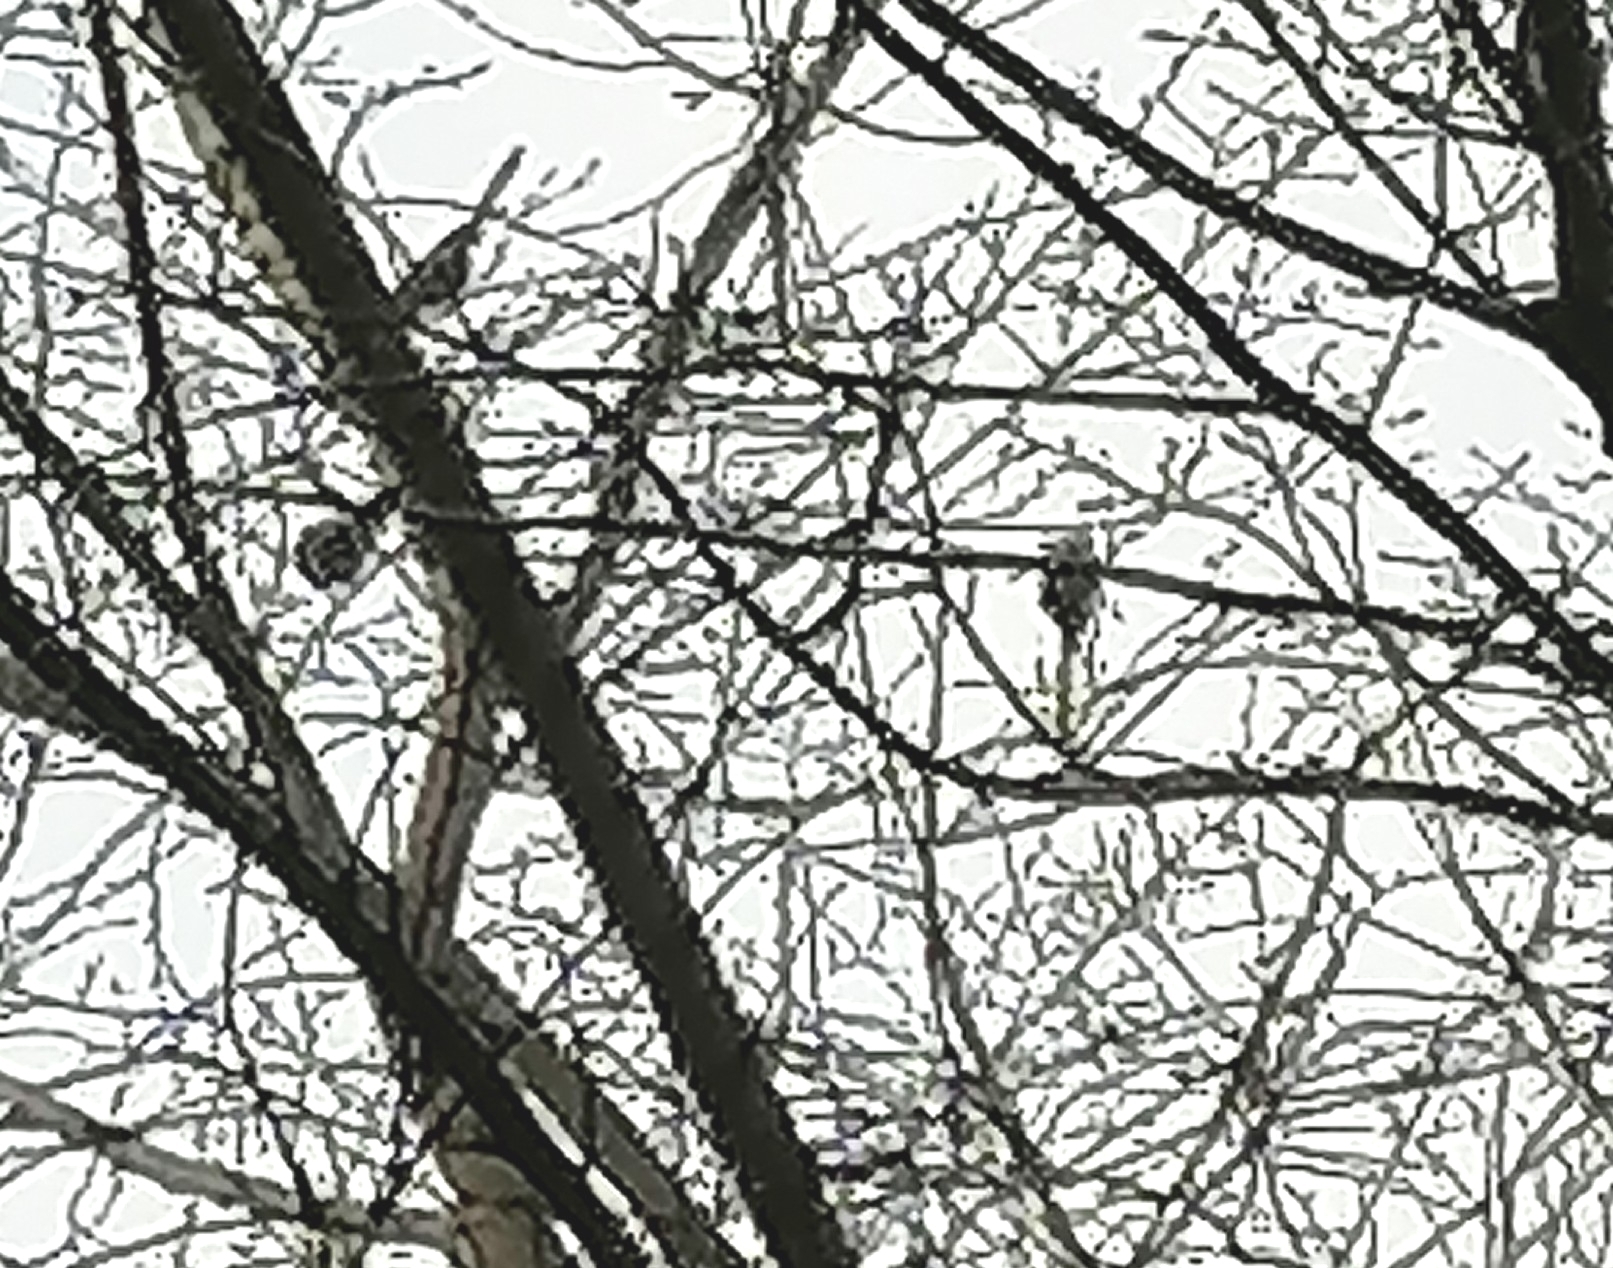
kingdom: Animalia
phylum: Chordata
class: Aves
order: Passeriformes
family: Aegithalidae
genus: Aegithalos
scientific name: Aegithalos caudatus
